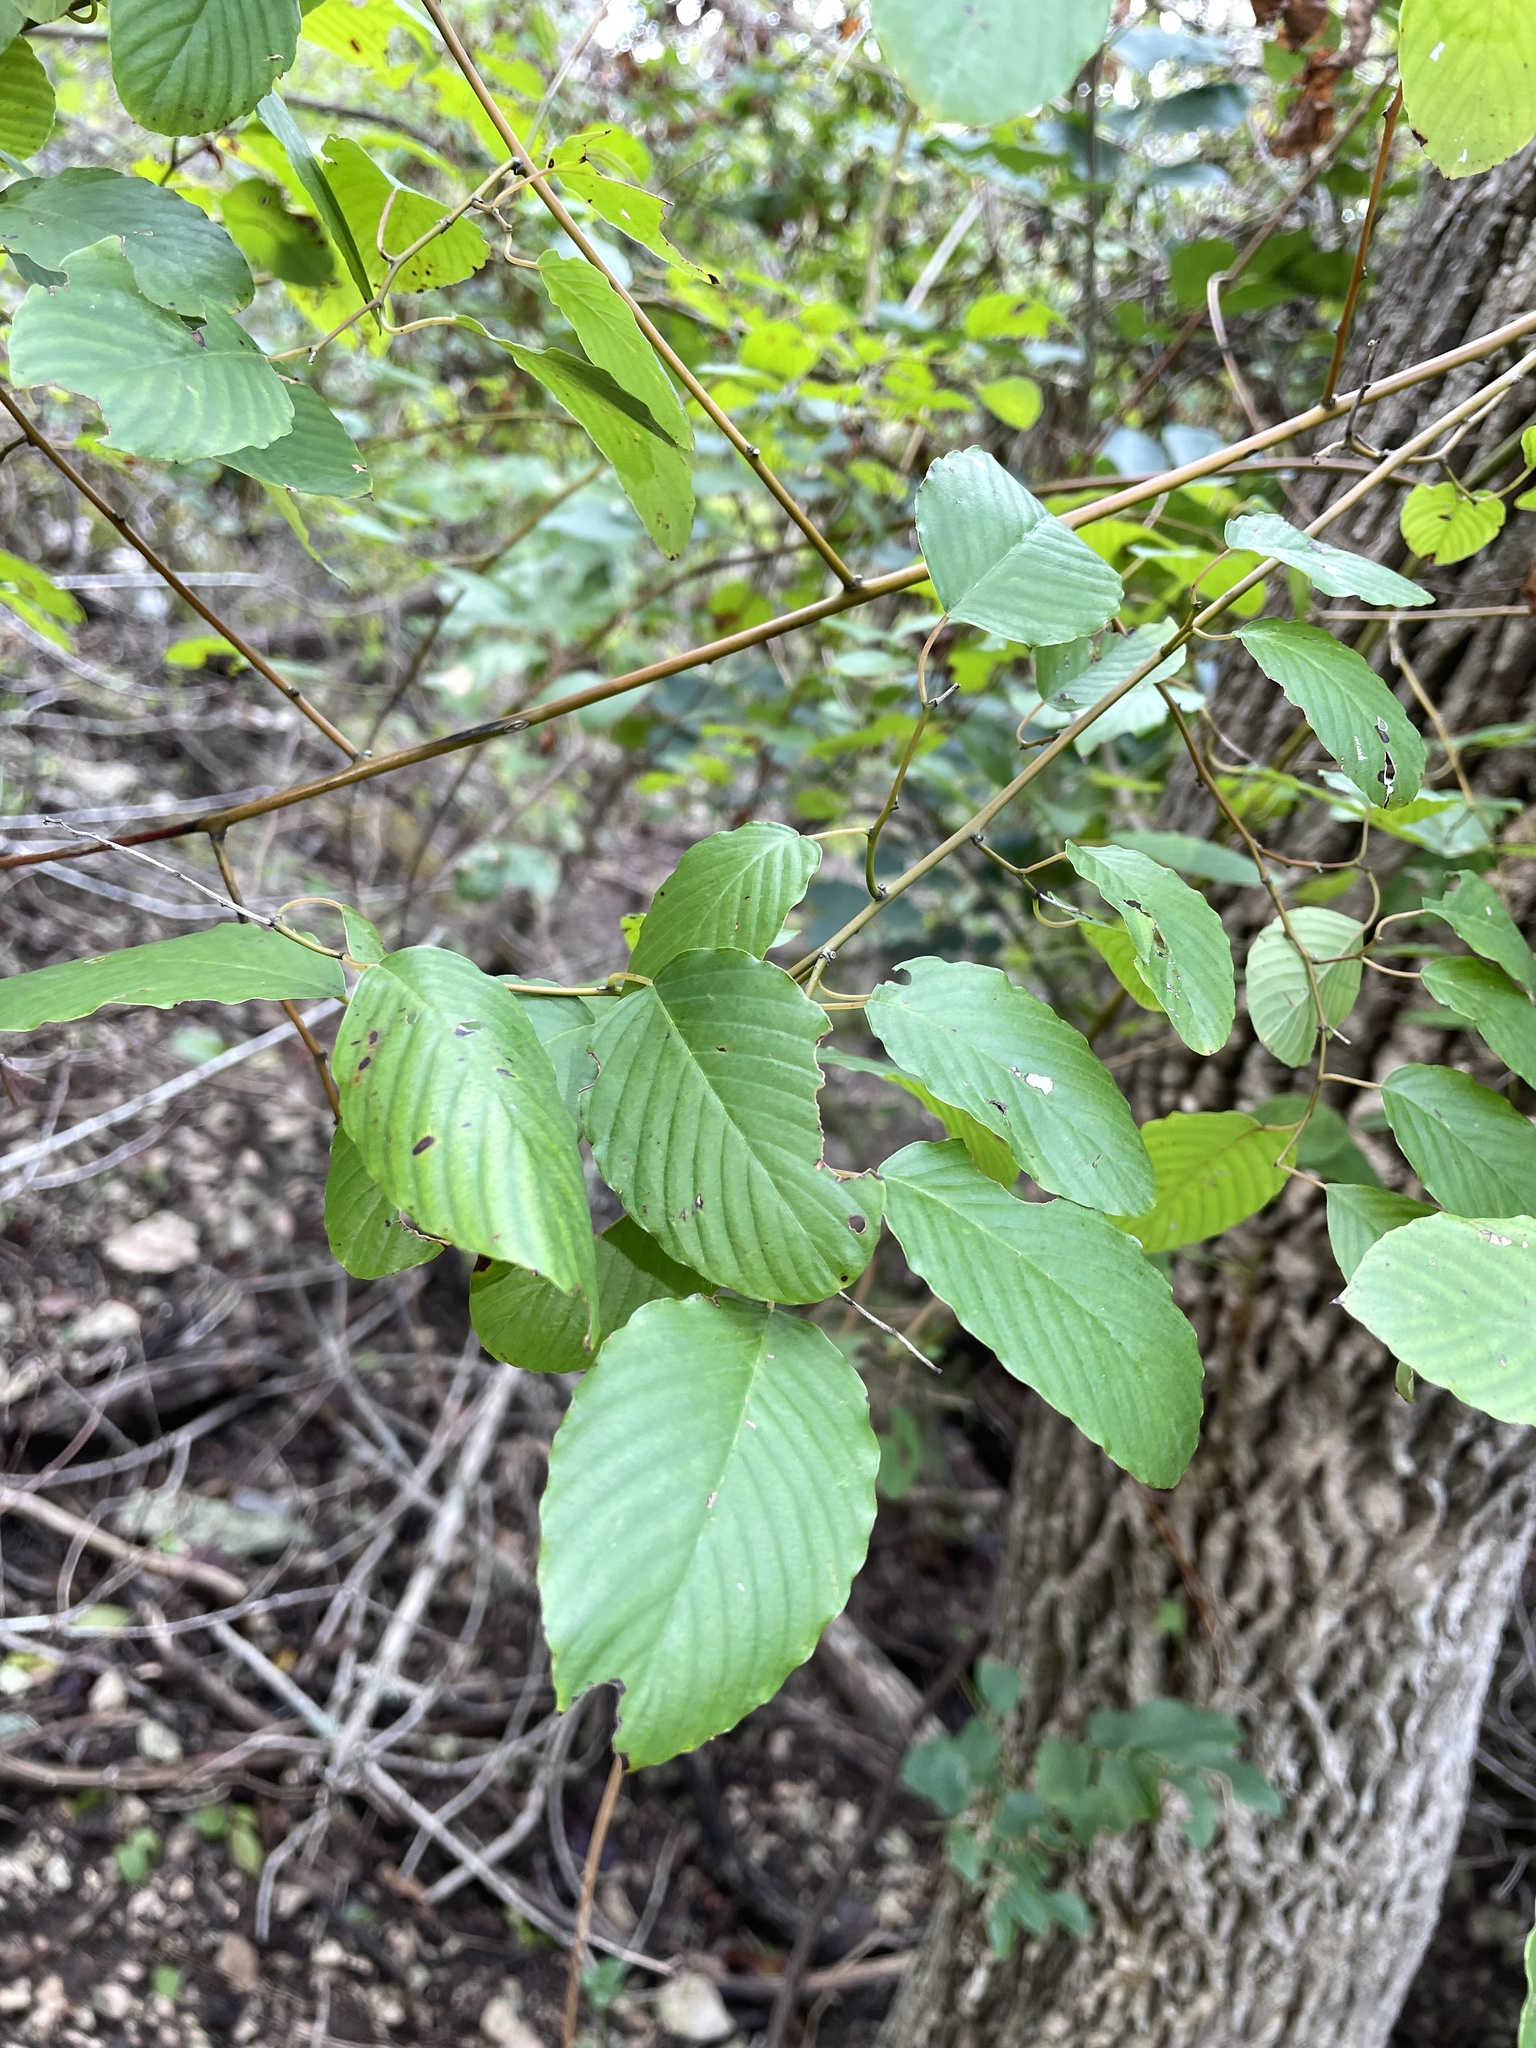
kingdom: Plantae
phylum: Tracheophyta
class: Magnoliopsida
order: Rosales
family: Rhamnaceae
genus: Berchemia
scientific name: Berchemia scandens
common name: Supplejack
